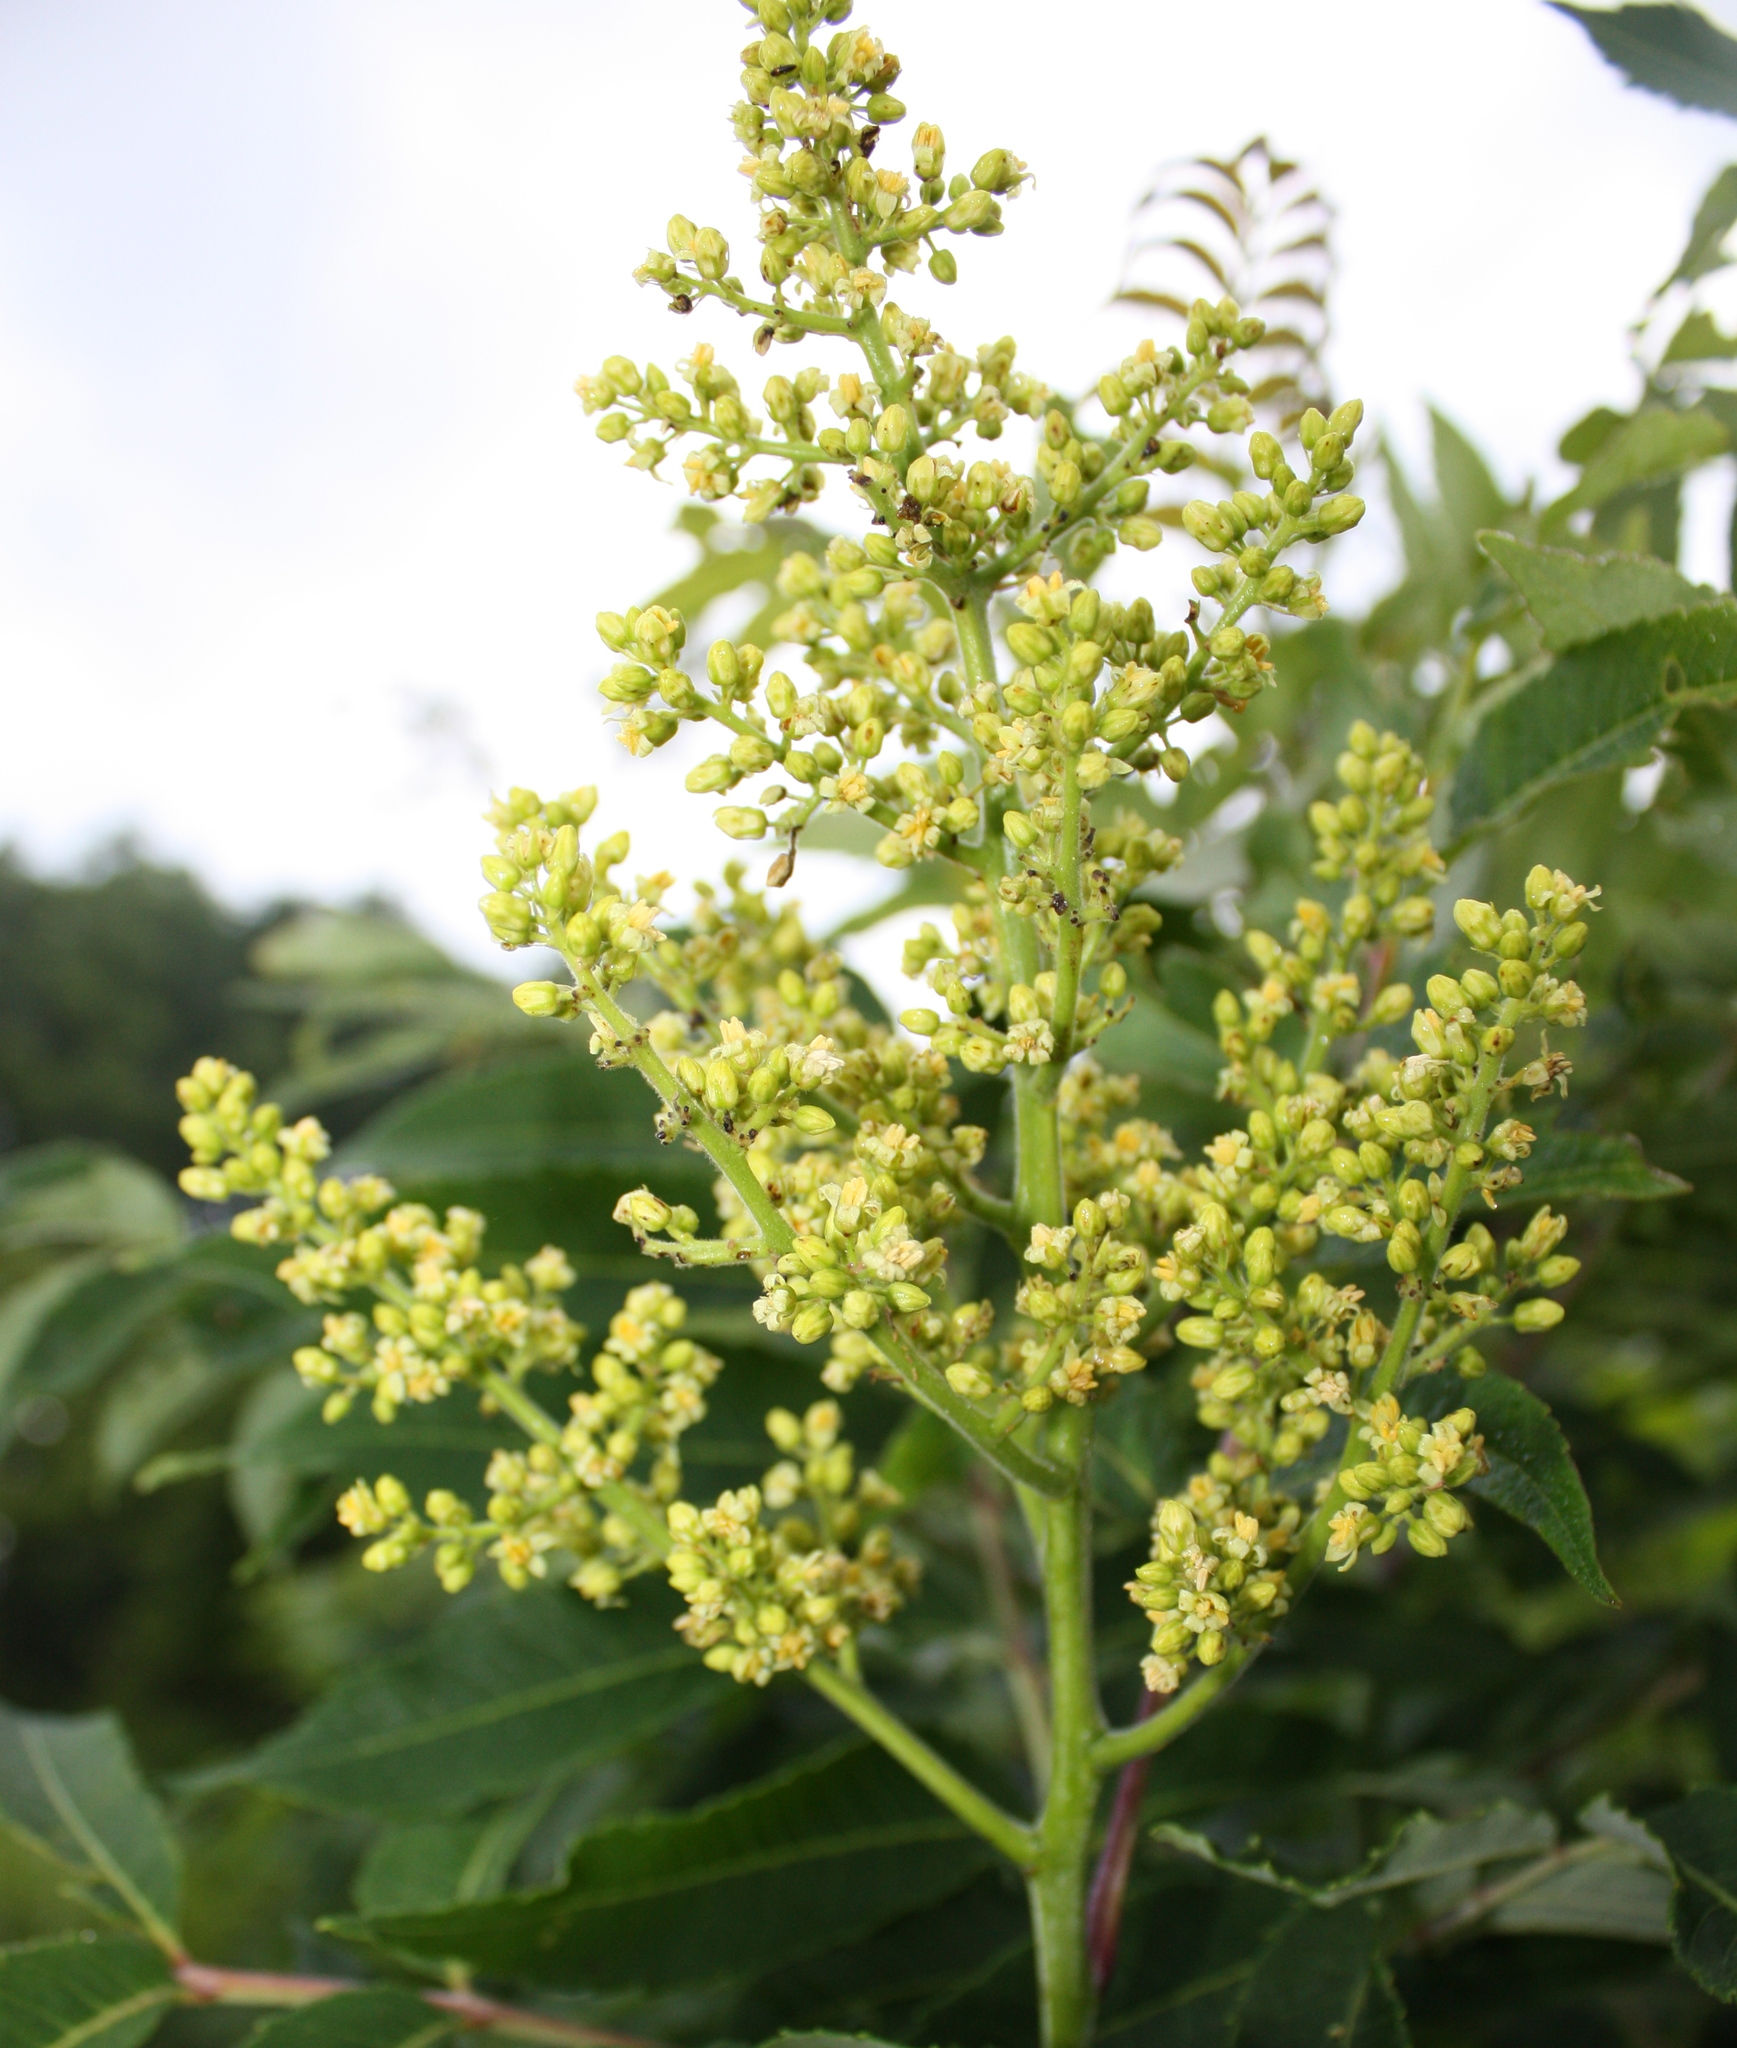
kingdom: Plantae
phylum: Tracheophyta
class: Magnoliopsida
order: Sapindales
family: Anacardiaceae
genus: Rhus
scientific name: Rhus glabra
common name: Scarlet sumac
